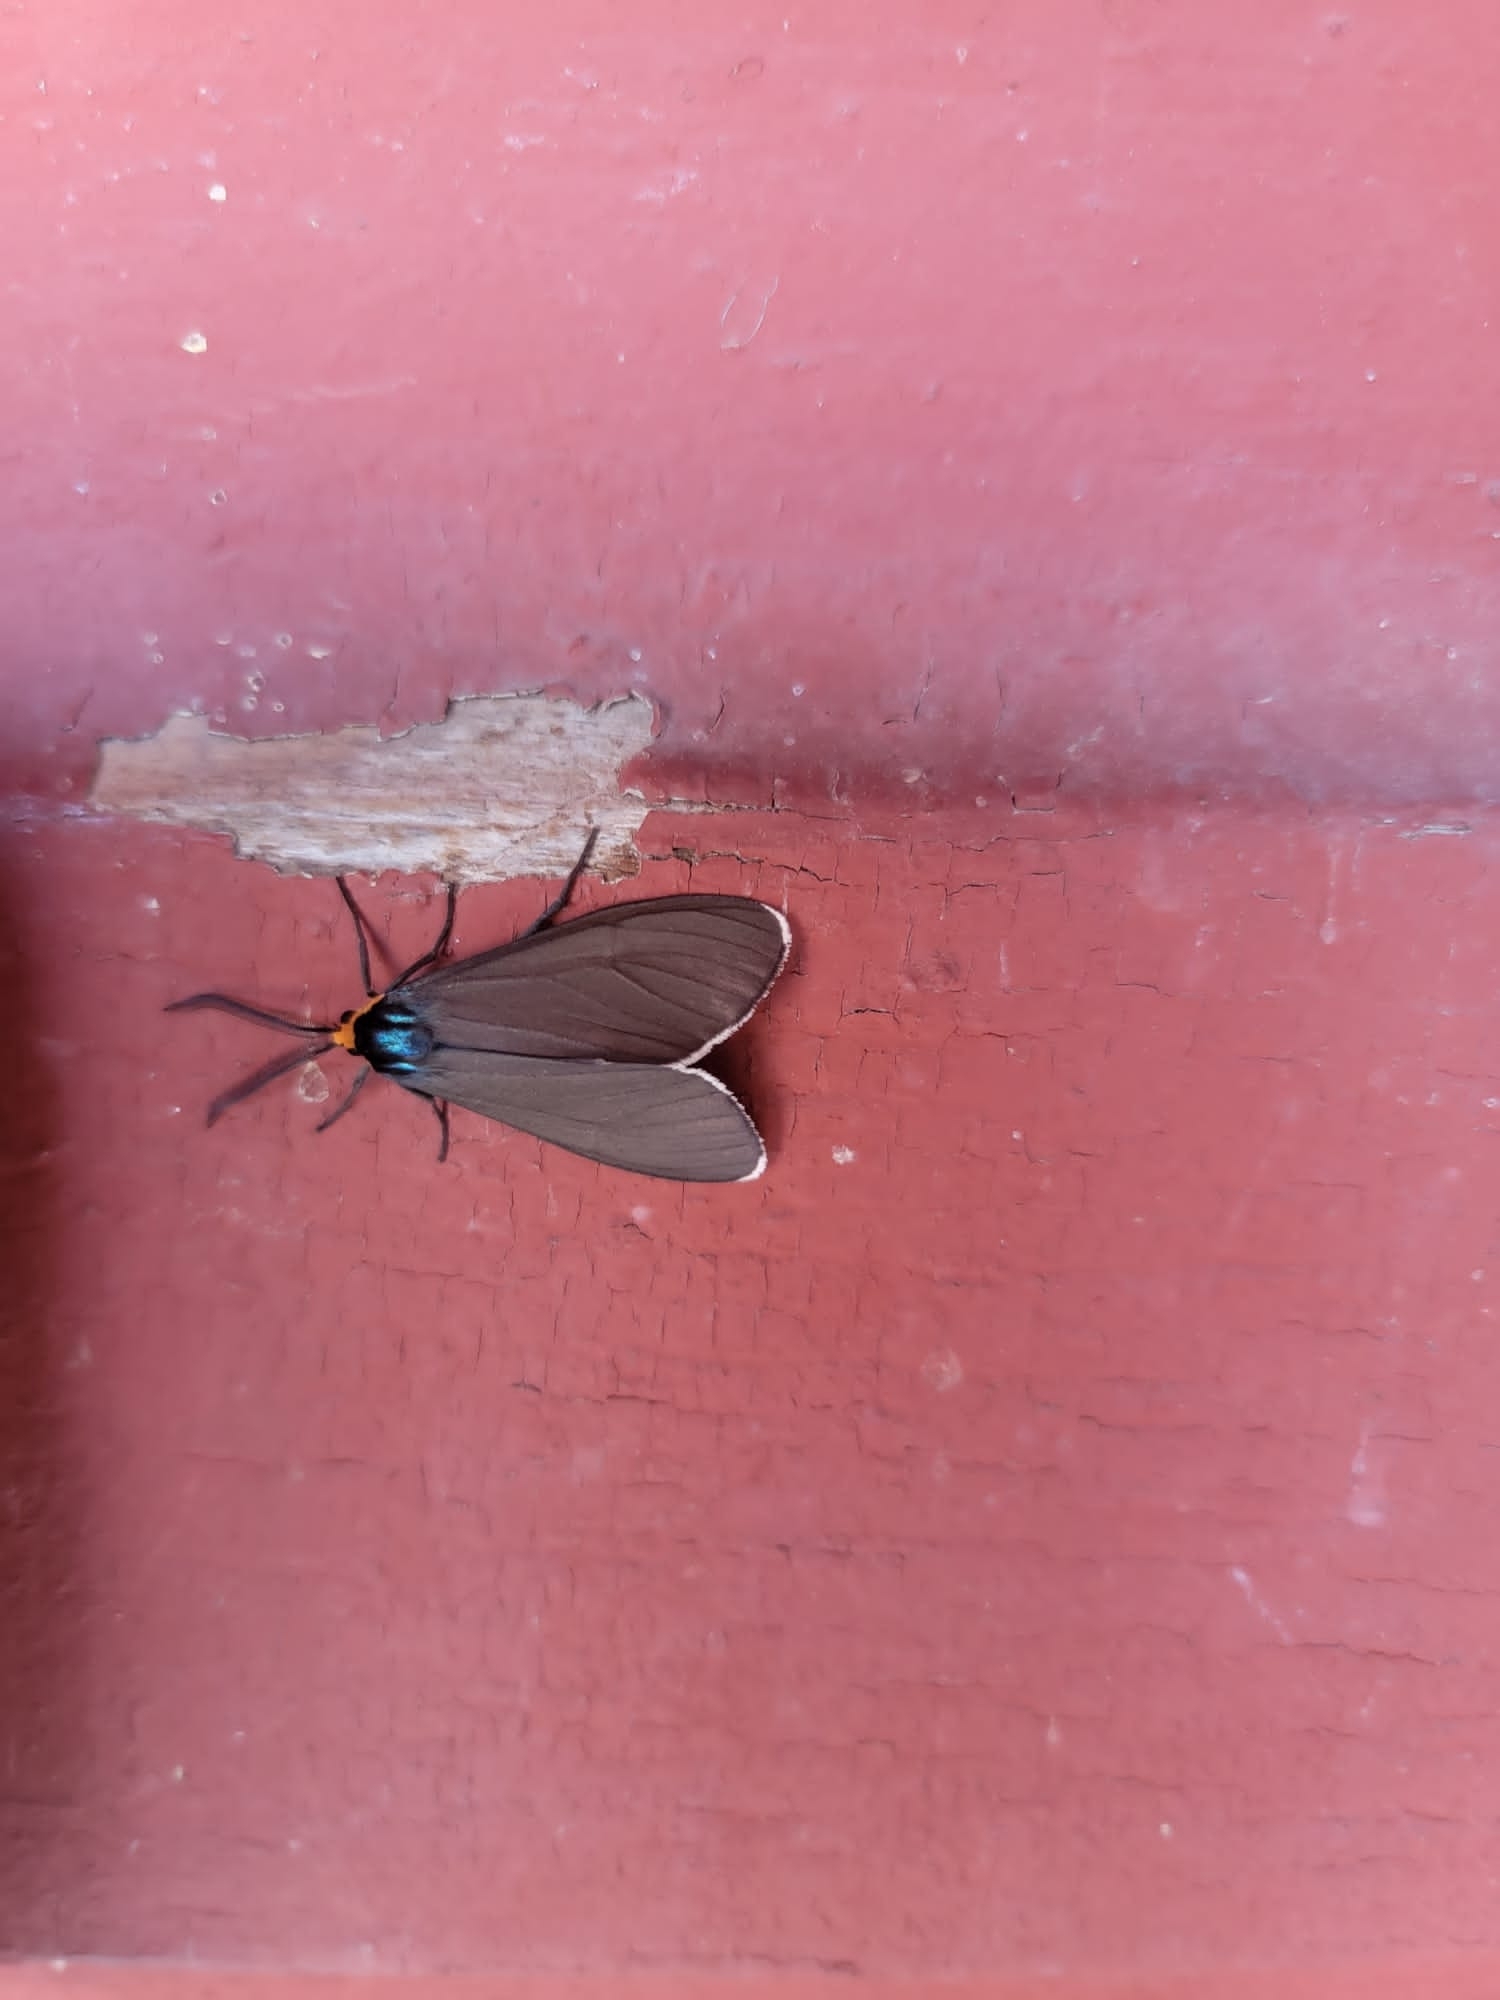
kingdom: Animalia
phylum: Arthropoda
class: Insecta
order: Lepidoptera
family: Erebidae
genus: Ctenucha
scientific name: Ctenucha virginica
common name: Virginia ctenucha moth
